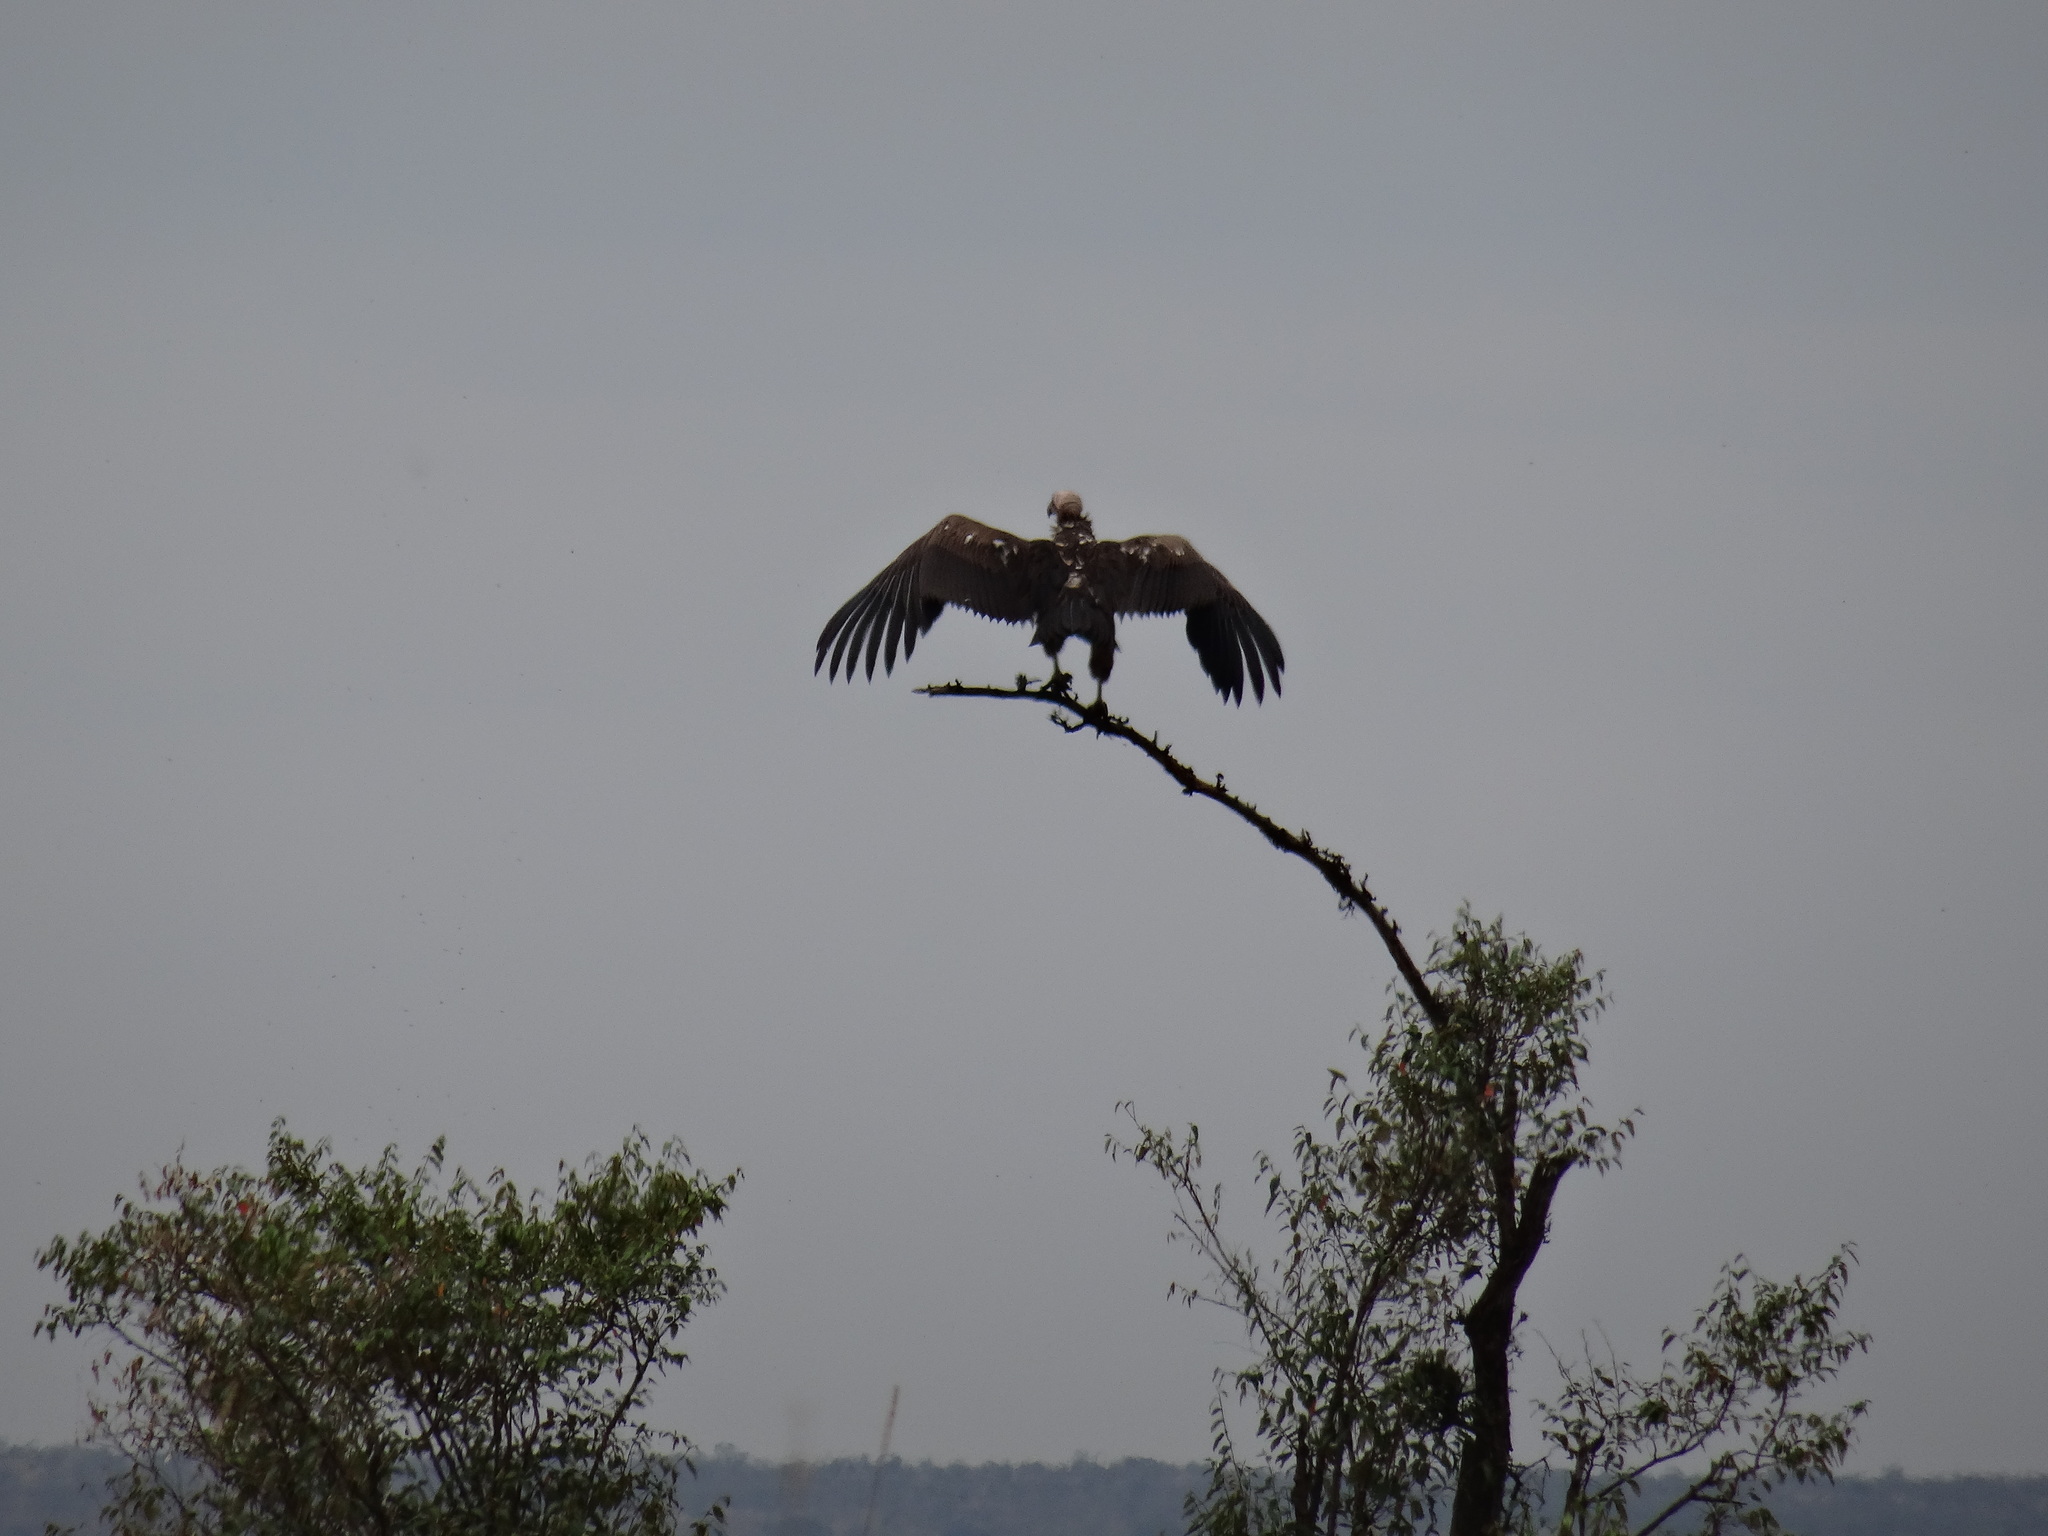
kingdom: Animalia
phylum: Chordata
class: Aves
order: Accipitriformes
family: Accipitridae
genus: Torgos
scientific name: Torgos tracheliotos
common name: Lappet-faced vulture
